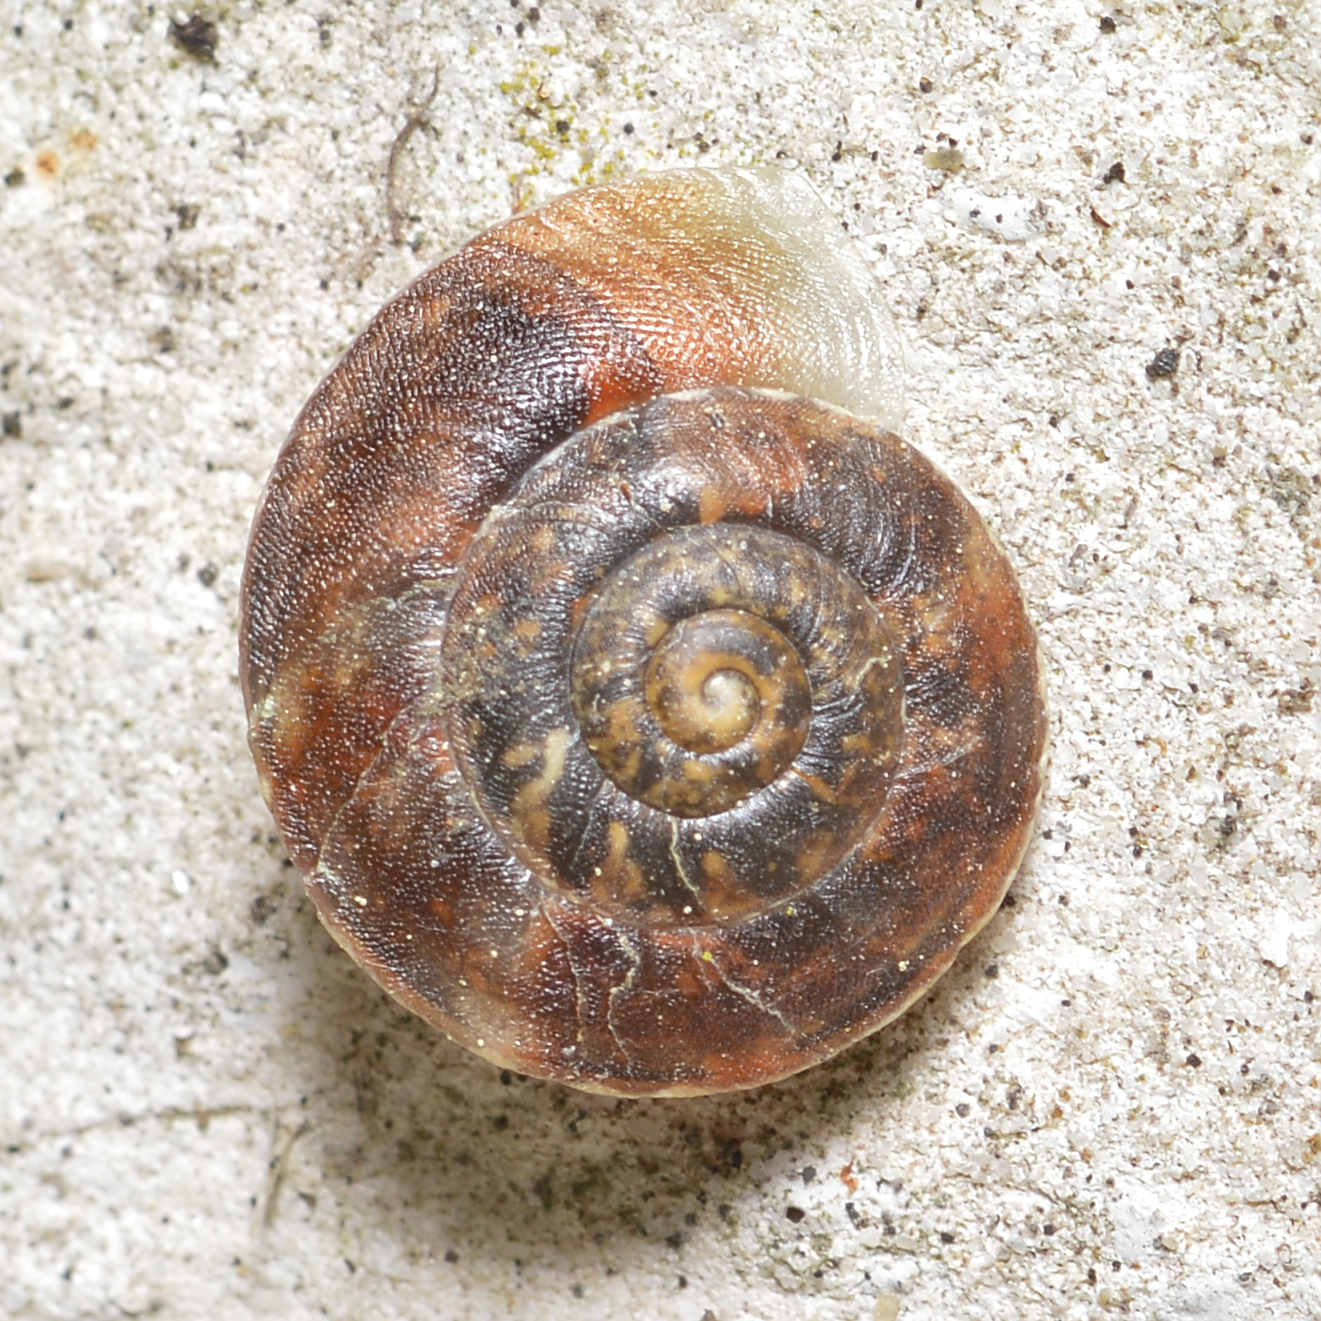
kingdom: Animalia
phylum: Mollusca
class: Gastropoda
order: Stylommatophora
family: Helicidae
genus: Helicigona
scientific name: Helicigona lapicida
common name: Lapidary snail
